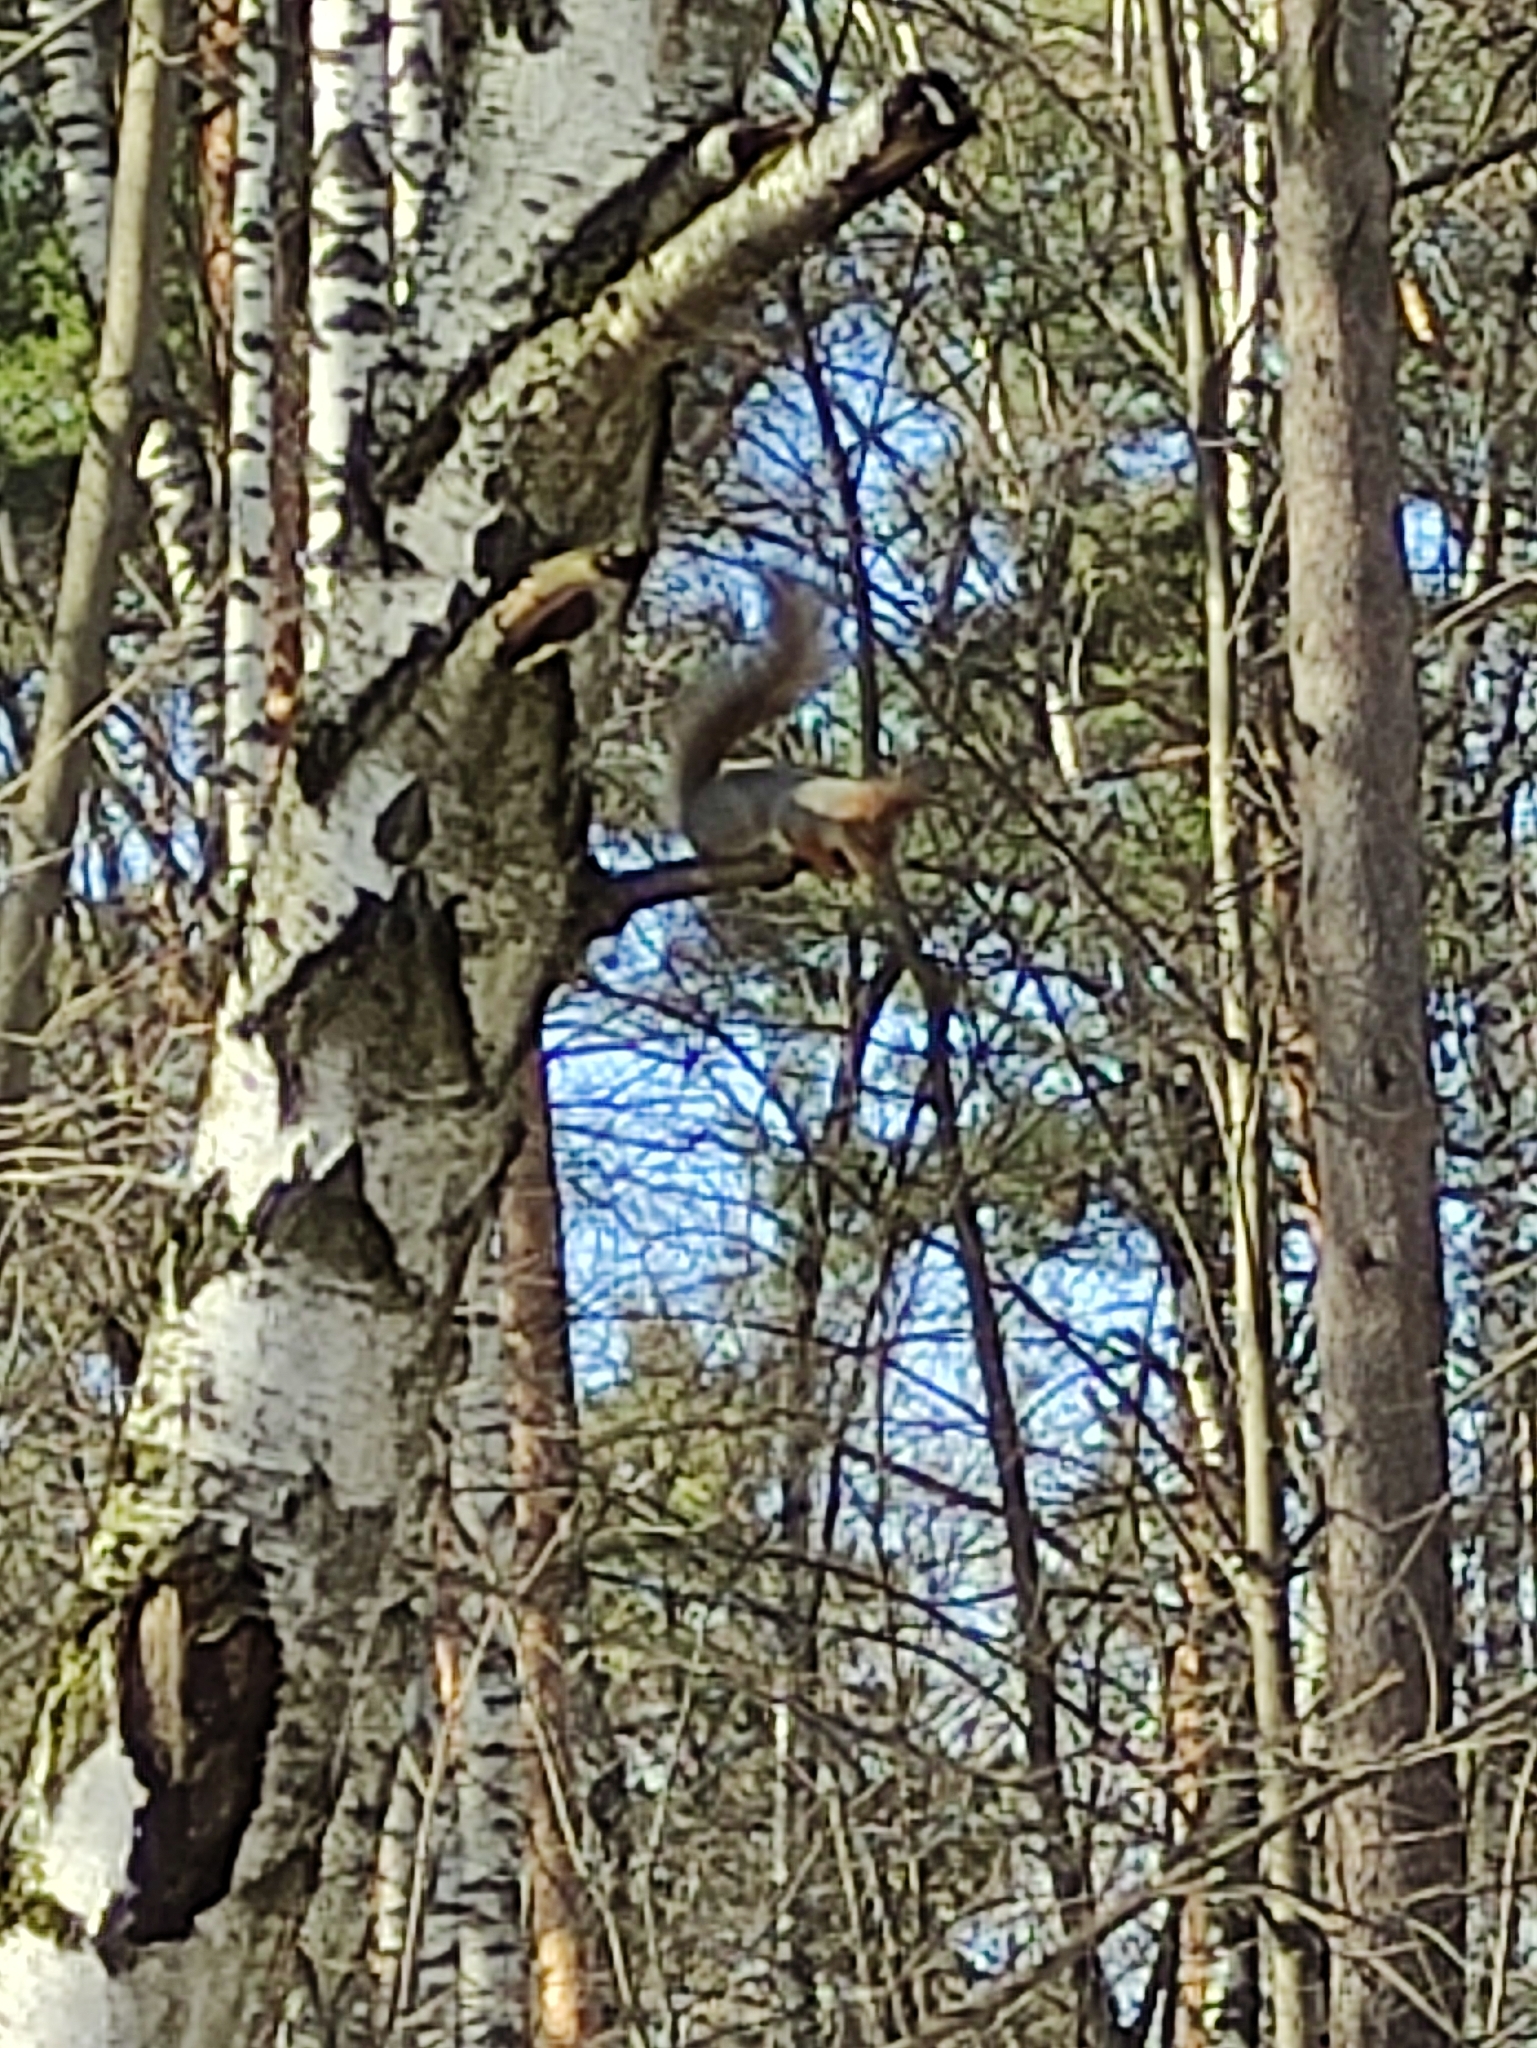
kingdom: Animalia
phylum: Chordata
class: Mammalia
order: Rodentia
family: Sciuridae
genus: Sciurus
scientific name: Sciurus vulgaris
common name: Eurasian red squirrel
